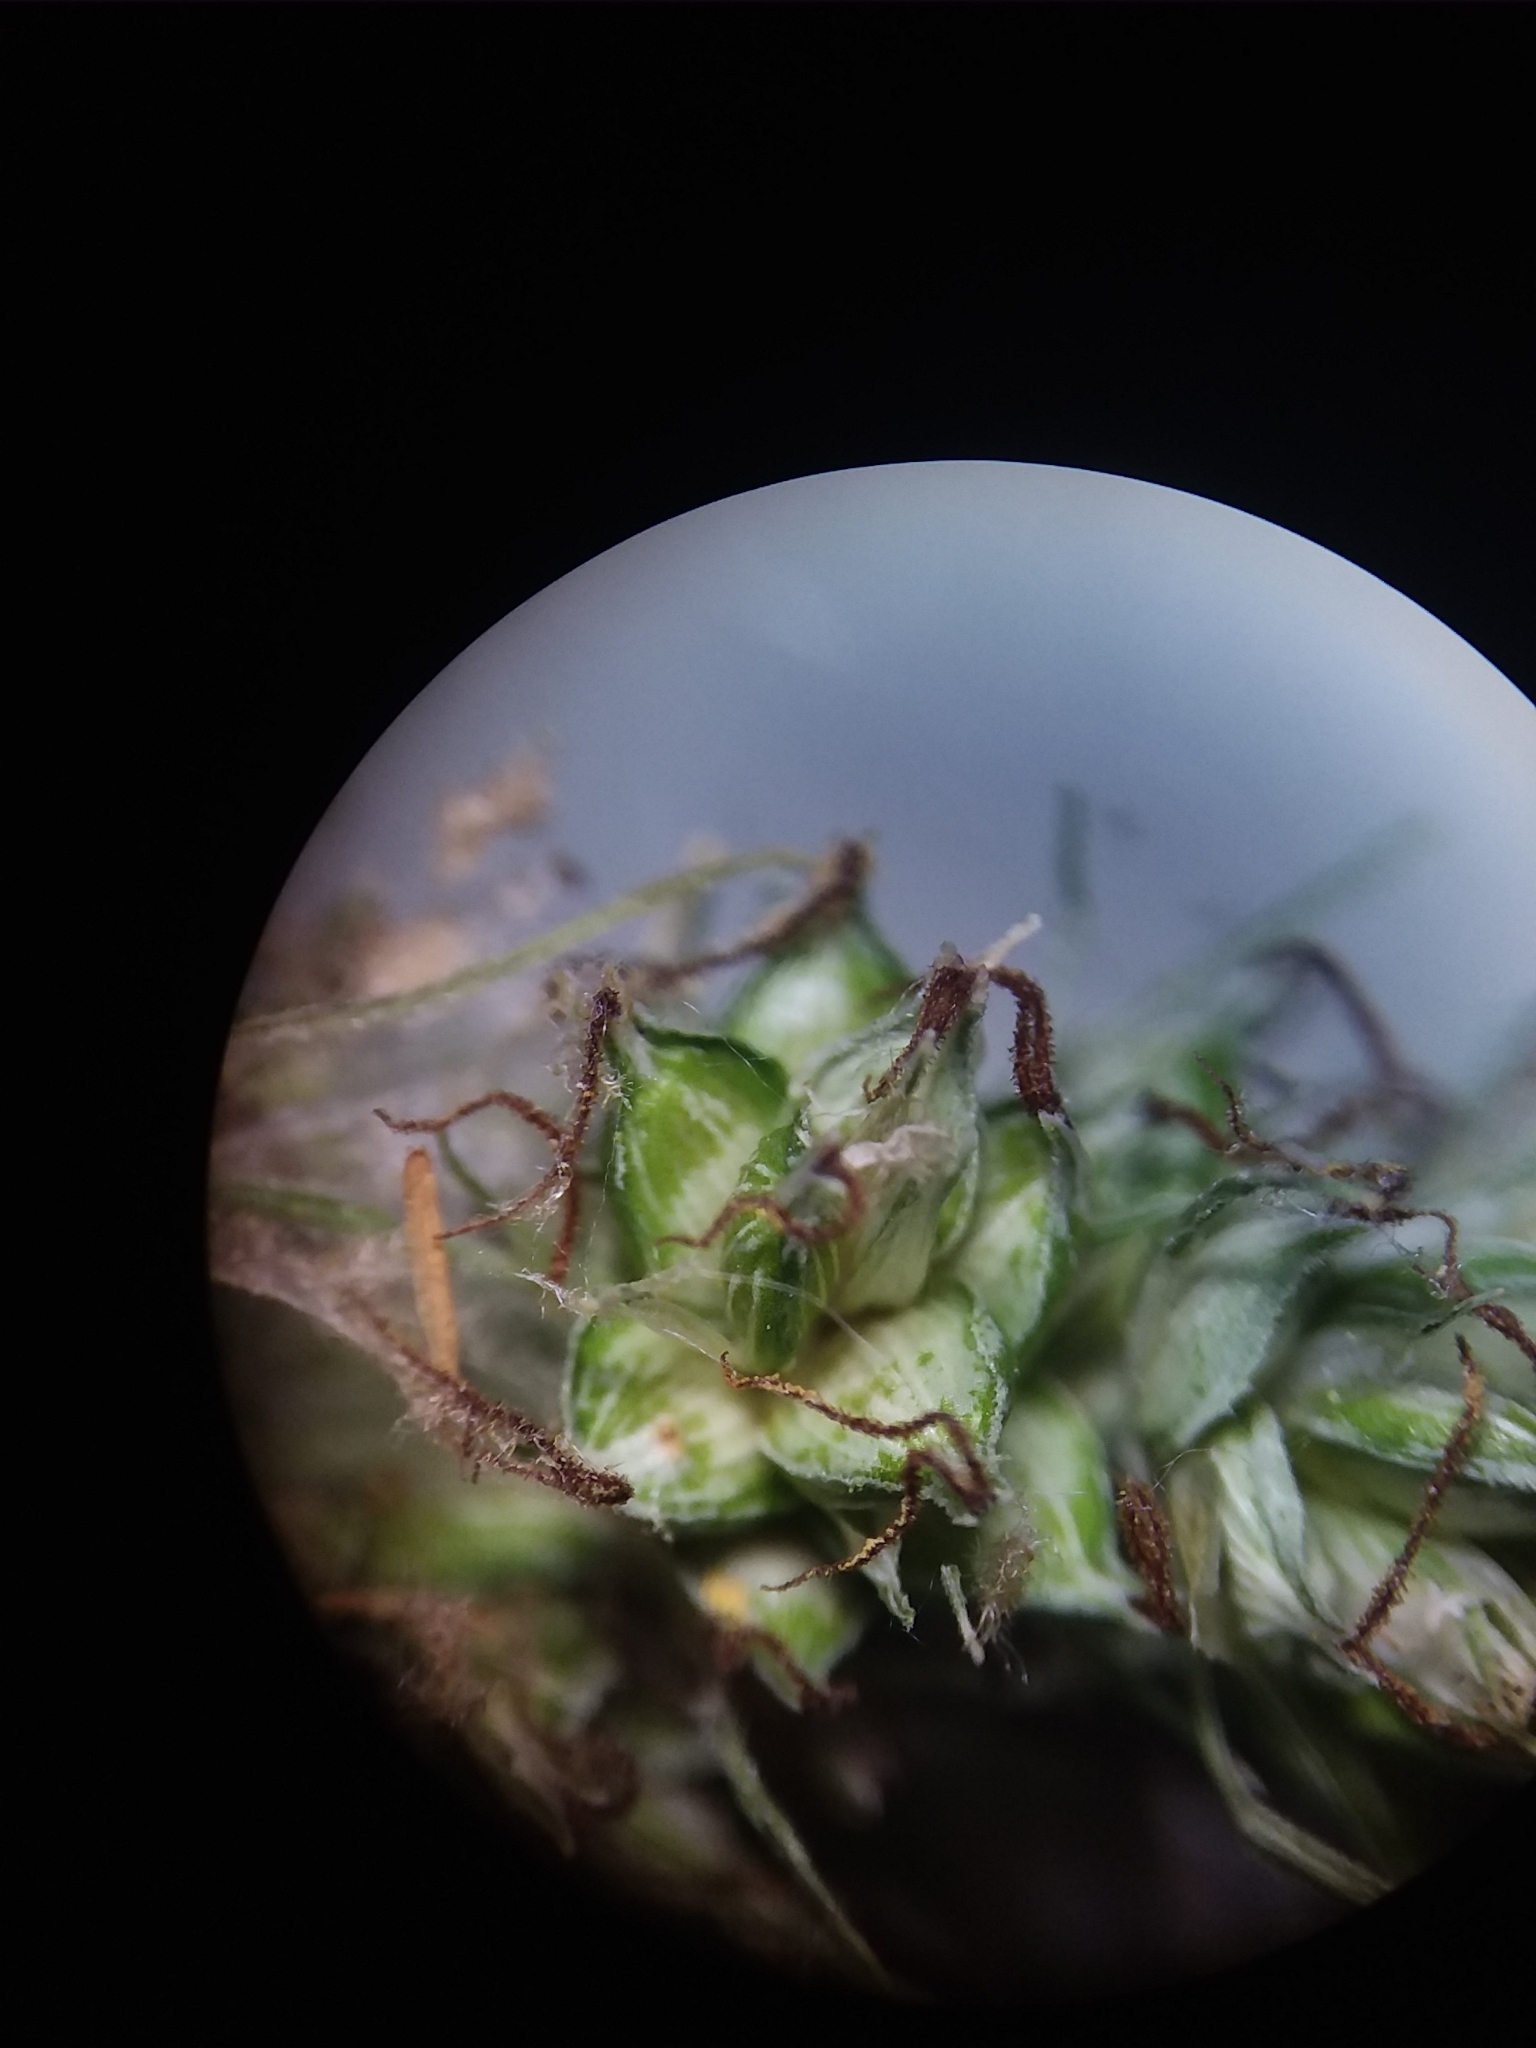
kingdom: Plantae
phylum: Tracheophyta
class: Liliopsida
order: Poales
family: Cyperaceae
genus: Carex
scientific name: Carex muehlenbergii
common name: Muhlenberg's bracted sedge
